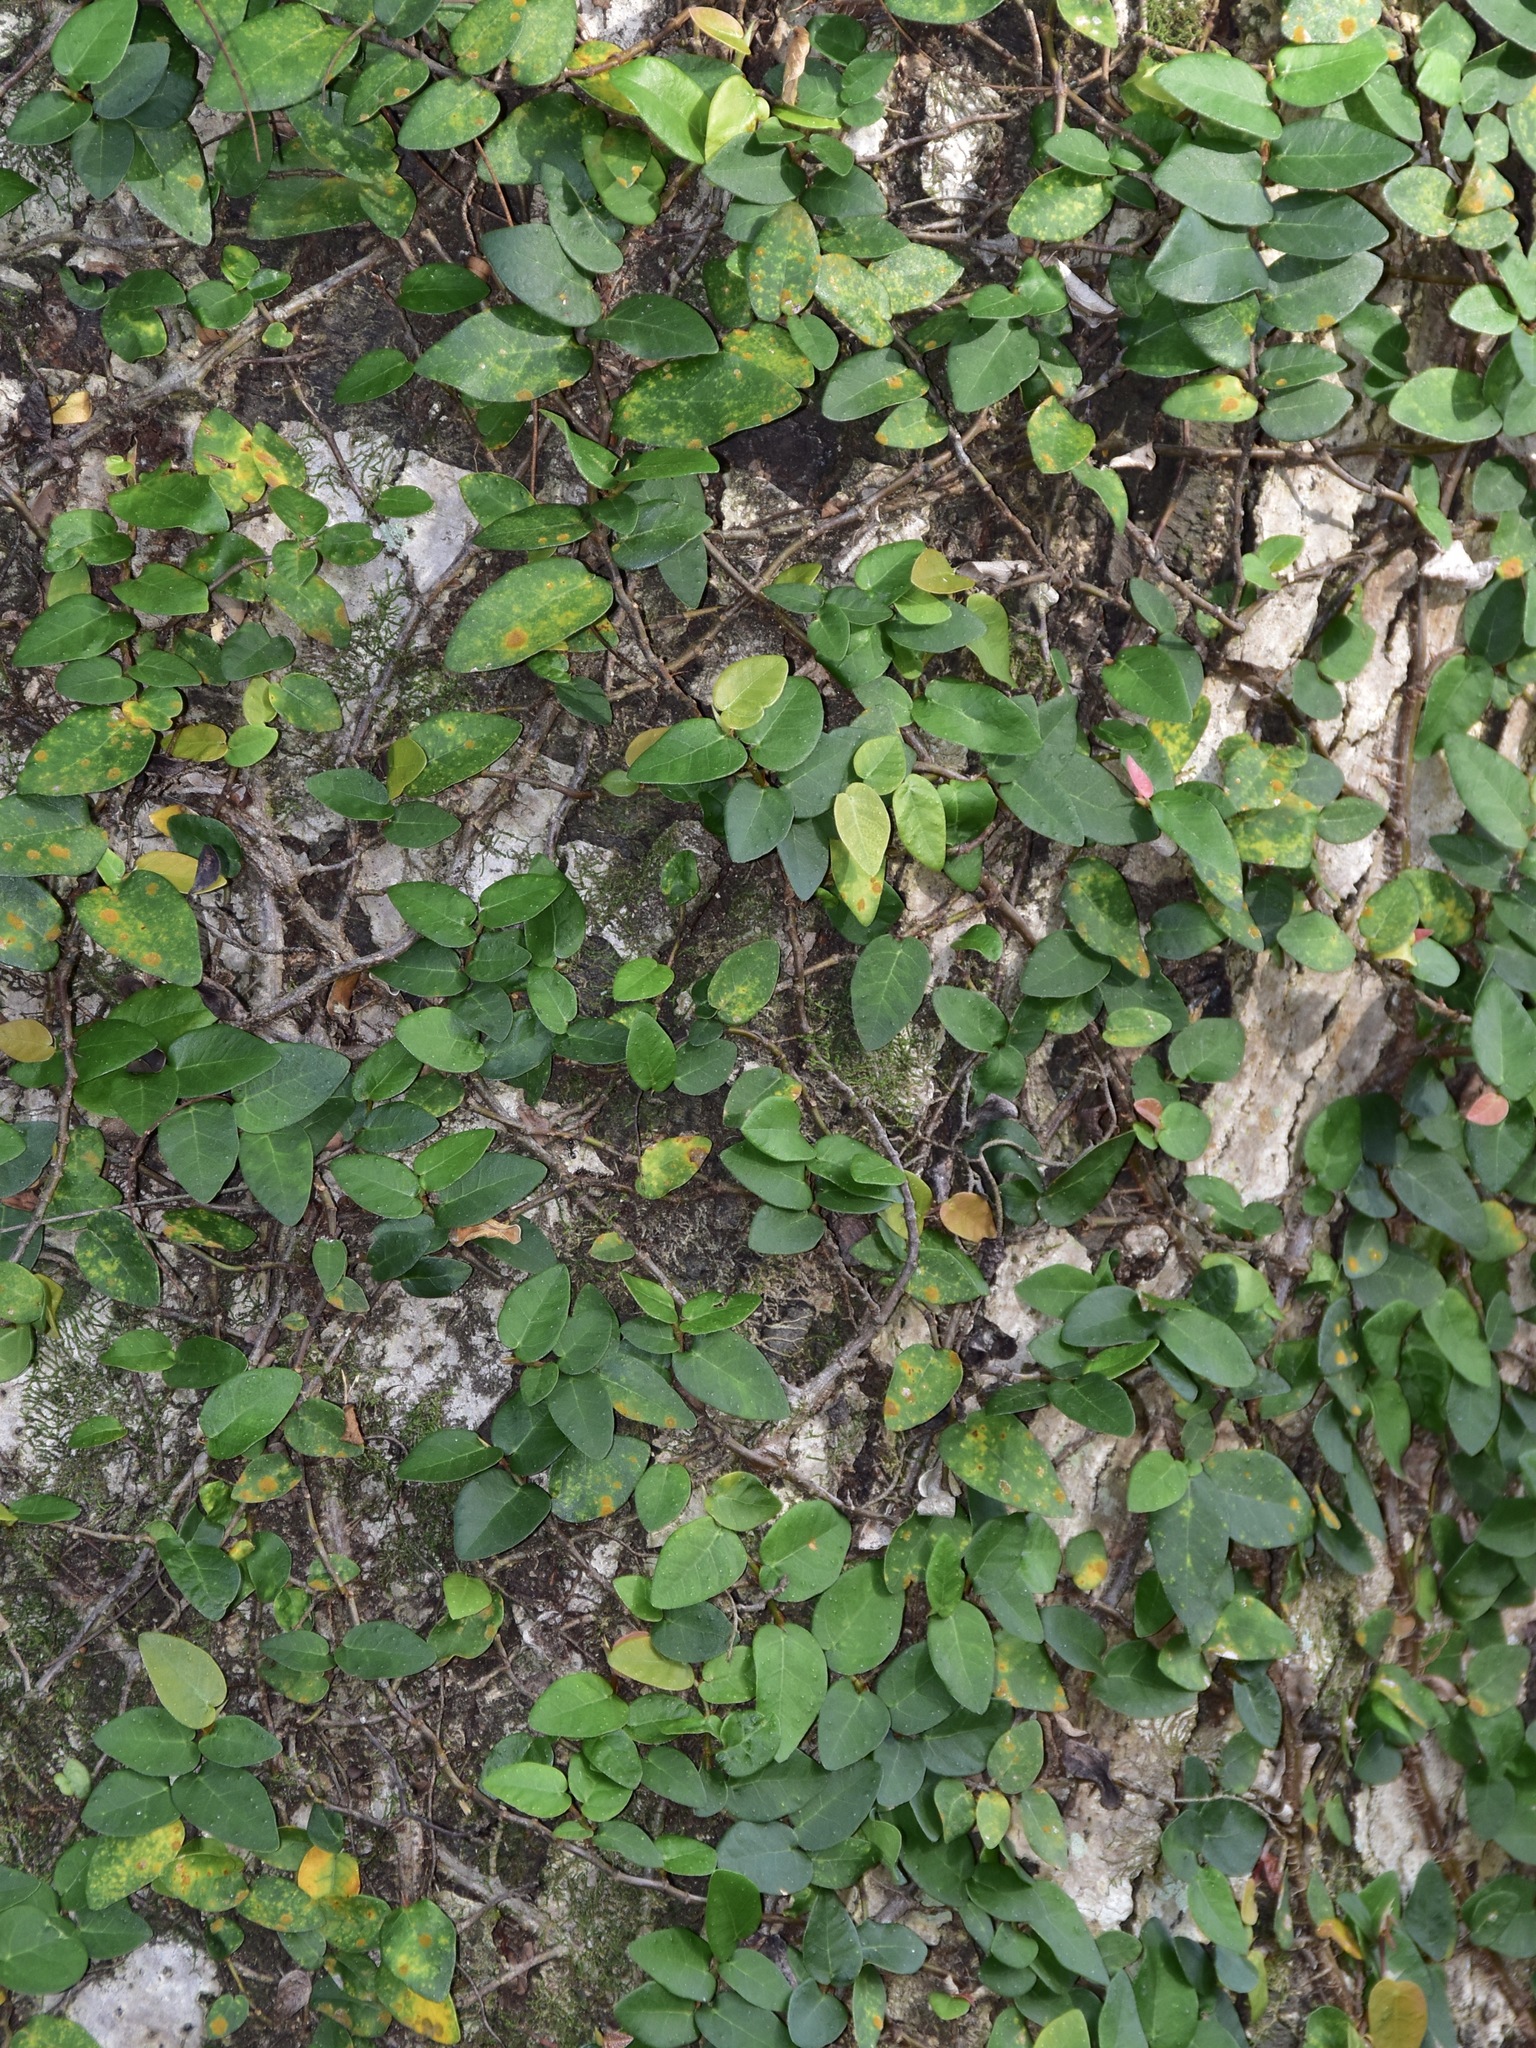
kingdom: Plantae
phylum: Tracheophyta
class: Magnoliopsida
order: Rosales
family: Moraceae
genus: Ficus
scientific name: Ficus pumila
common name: Climbingfig
